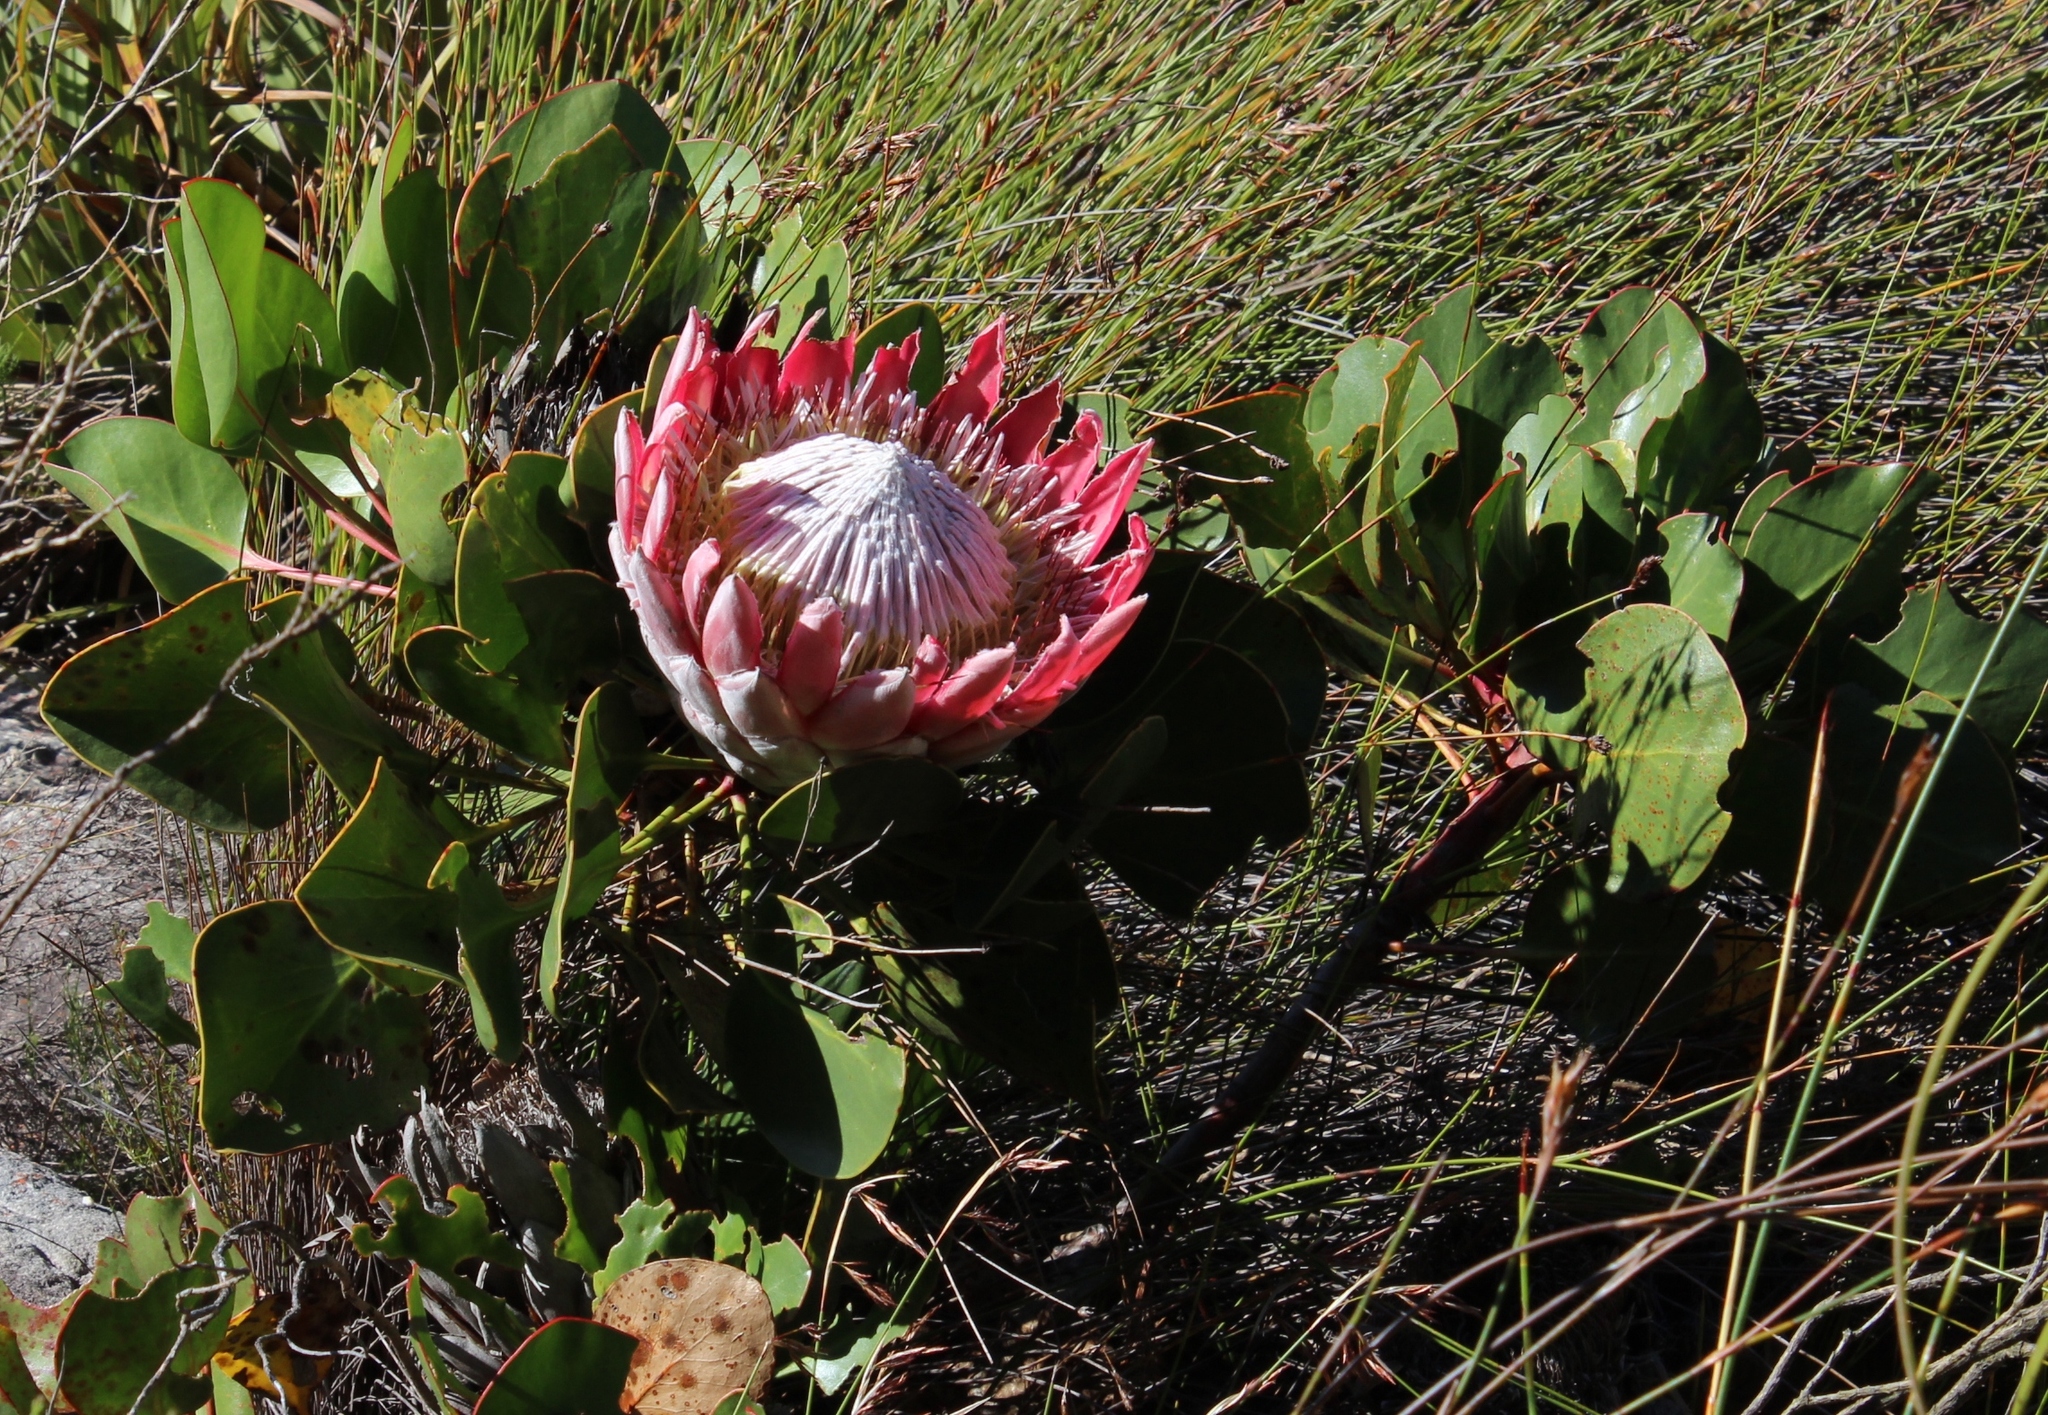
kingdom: Plantae
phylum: Tracheophyta
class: Magnoliopsida
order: Proteales
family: Proteaceae
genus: Protea
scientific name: Protea cynaroides
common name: King protea
